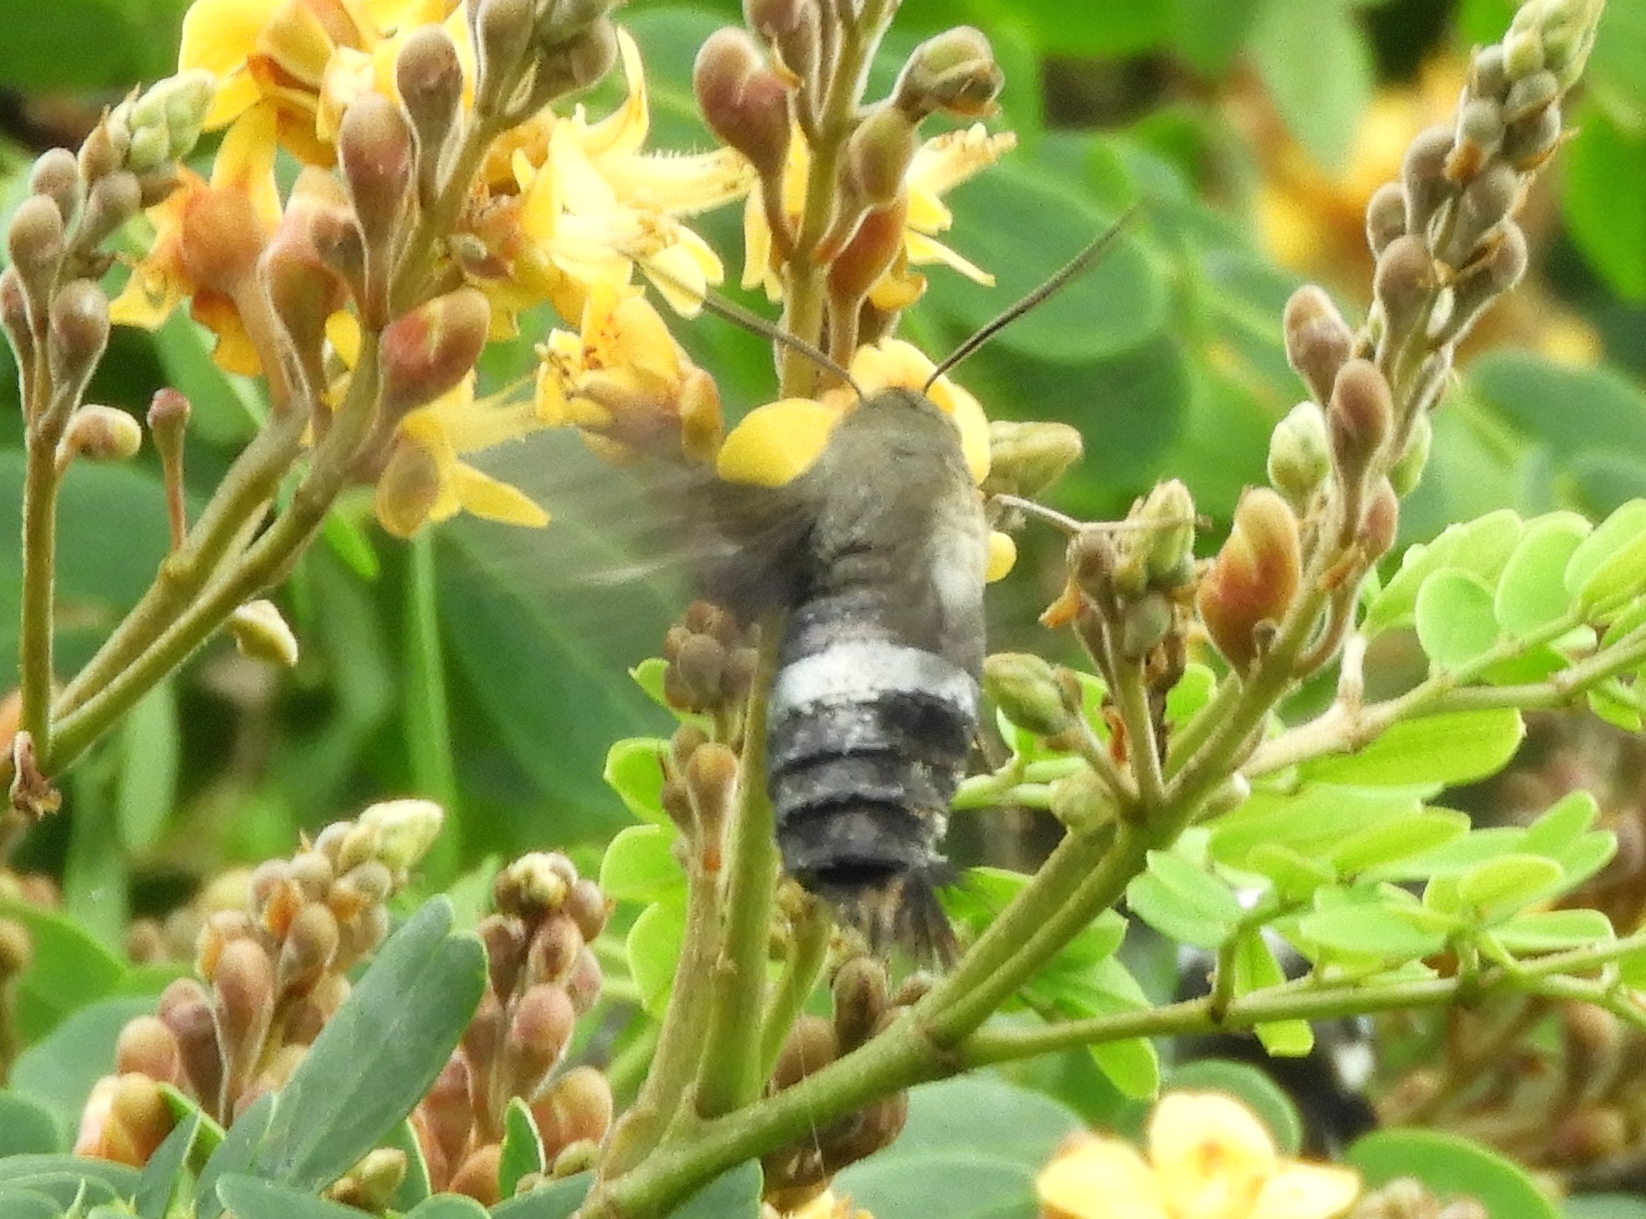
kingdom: Animalia
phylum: Arthropoda
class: Insecta
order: Lepidoptera
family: Sphingidae
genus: Aellopos
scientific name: Aellopos
